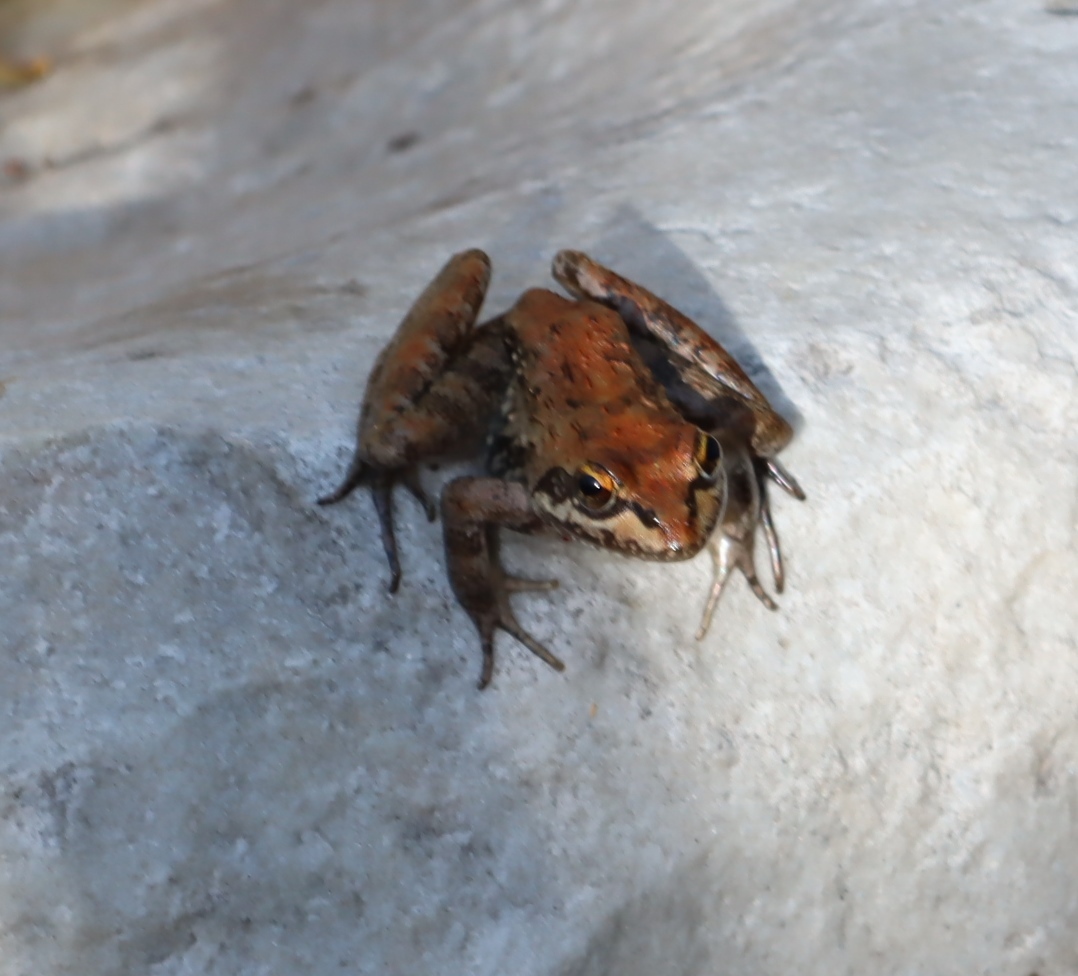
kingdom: Animalia
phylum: Chordata
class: Amphibia
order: Anura
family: Pyxicephalidae
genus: Amietia
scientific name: Amietia fuscigula
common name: Cape rana
